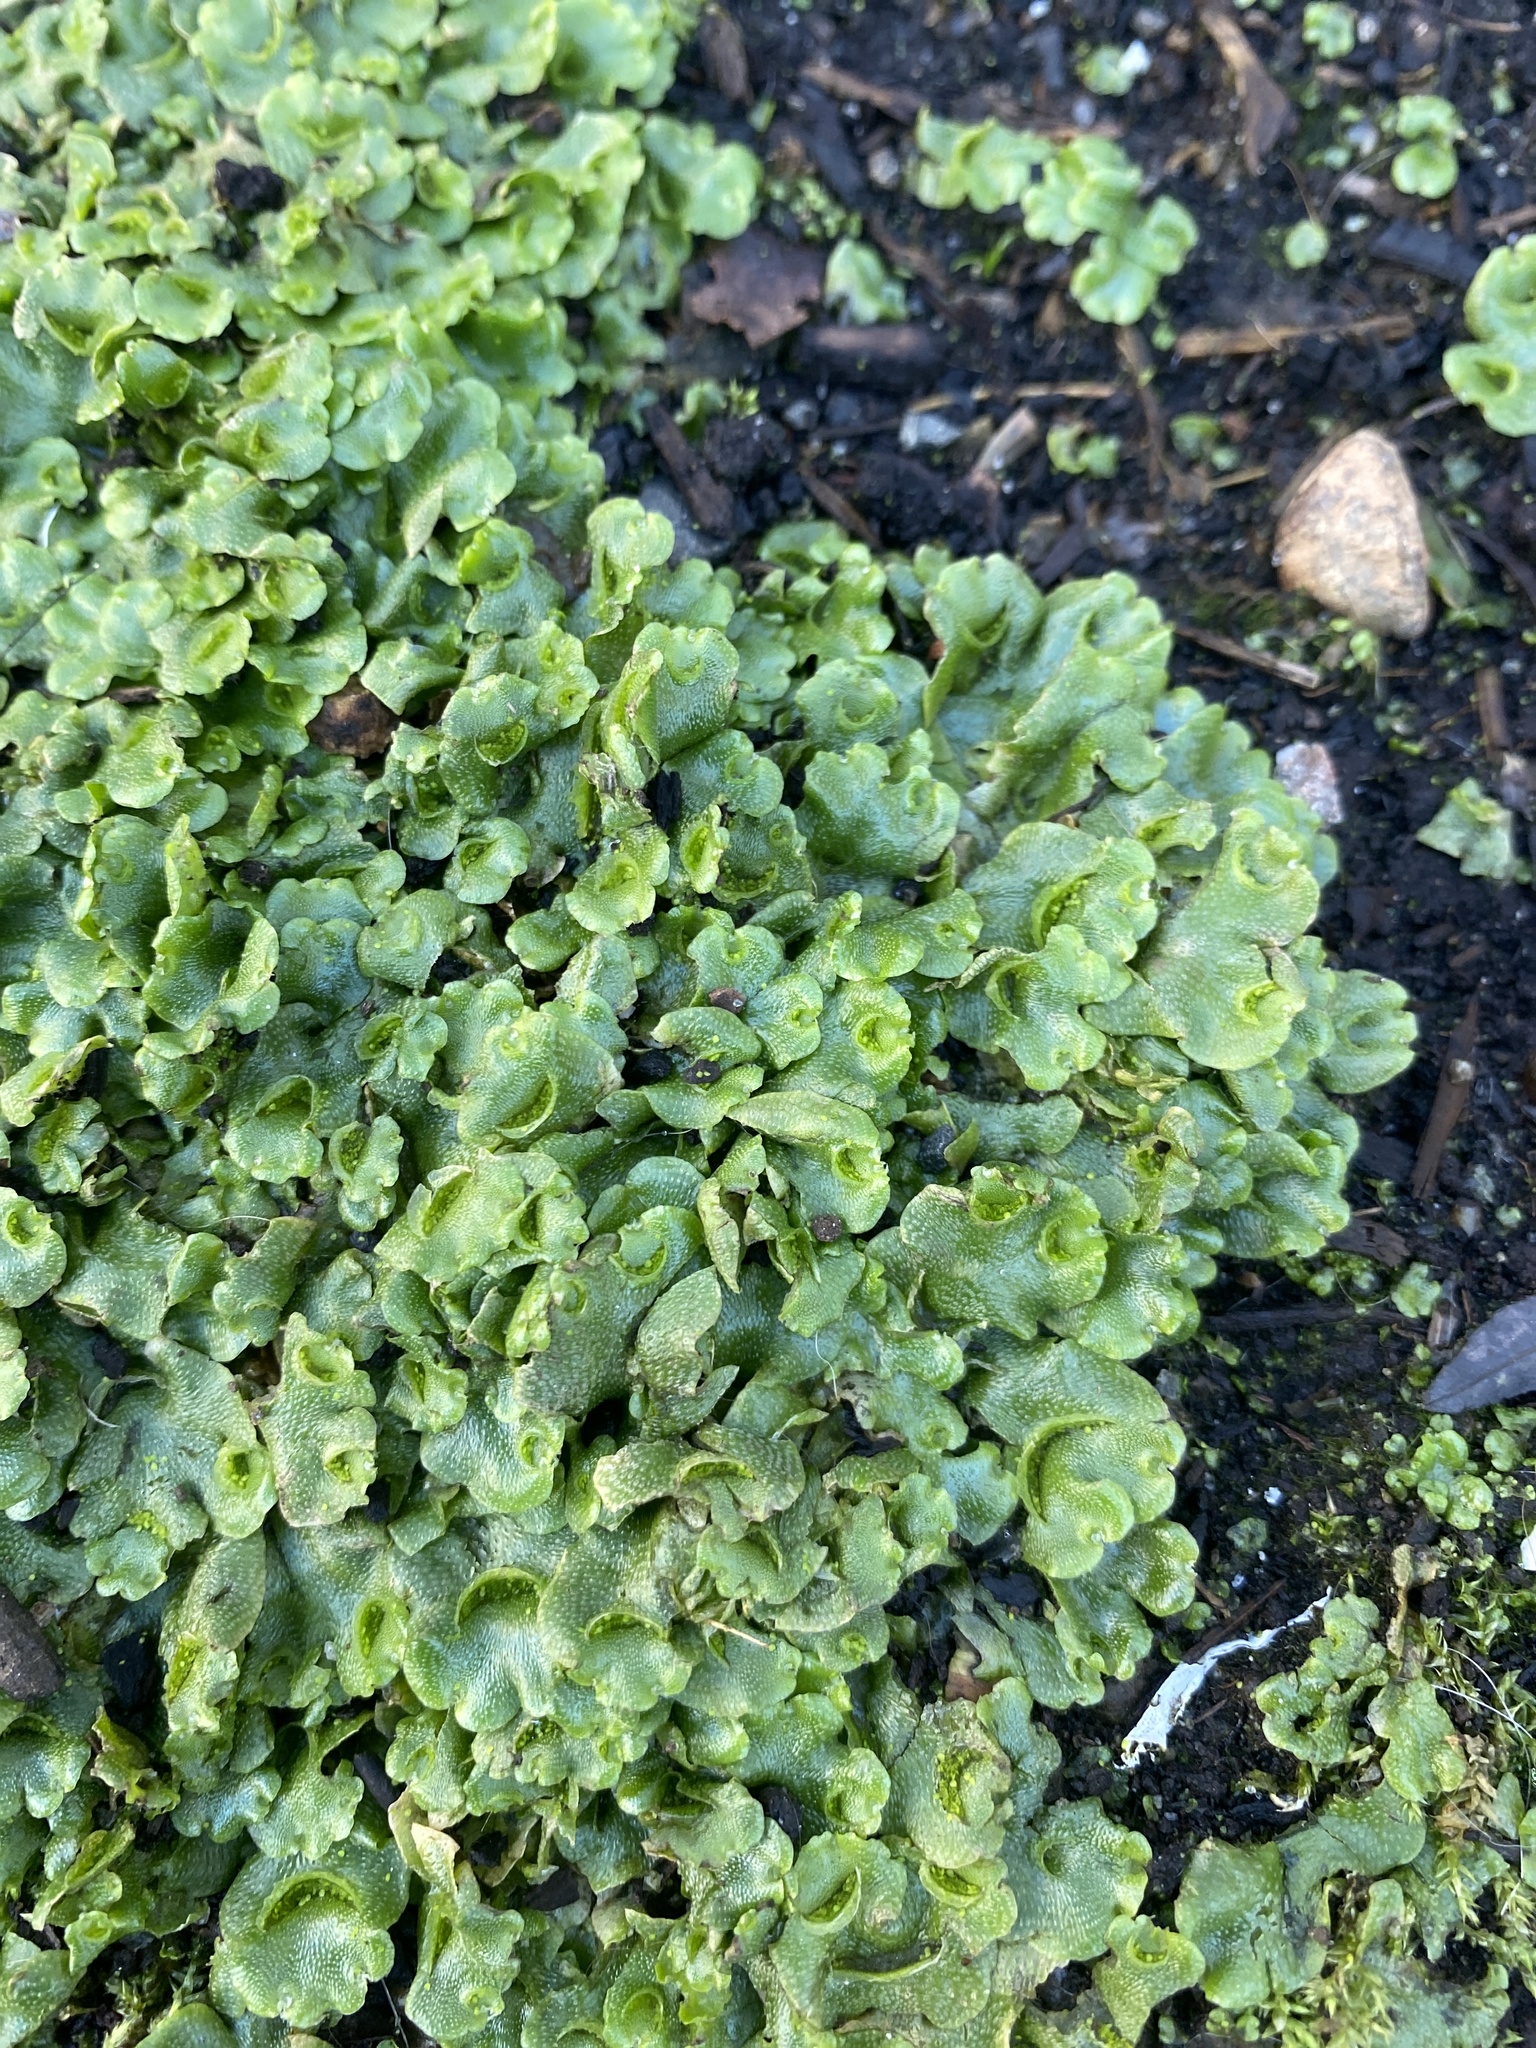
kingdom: Plantae
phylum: Marchantiophyta
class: Marchantiopsida
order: Lunulariales
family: Lunulariaceae
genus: Lunularia
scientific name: Lunularia cruciata
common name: Crescent-cup liverwort
